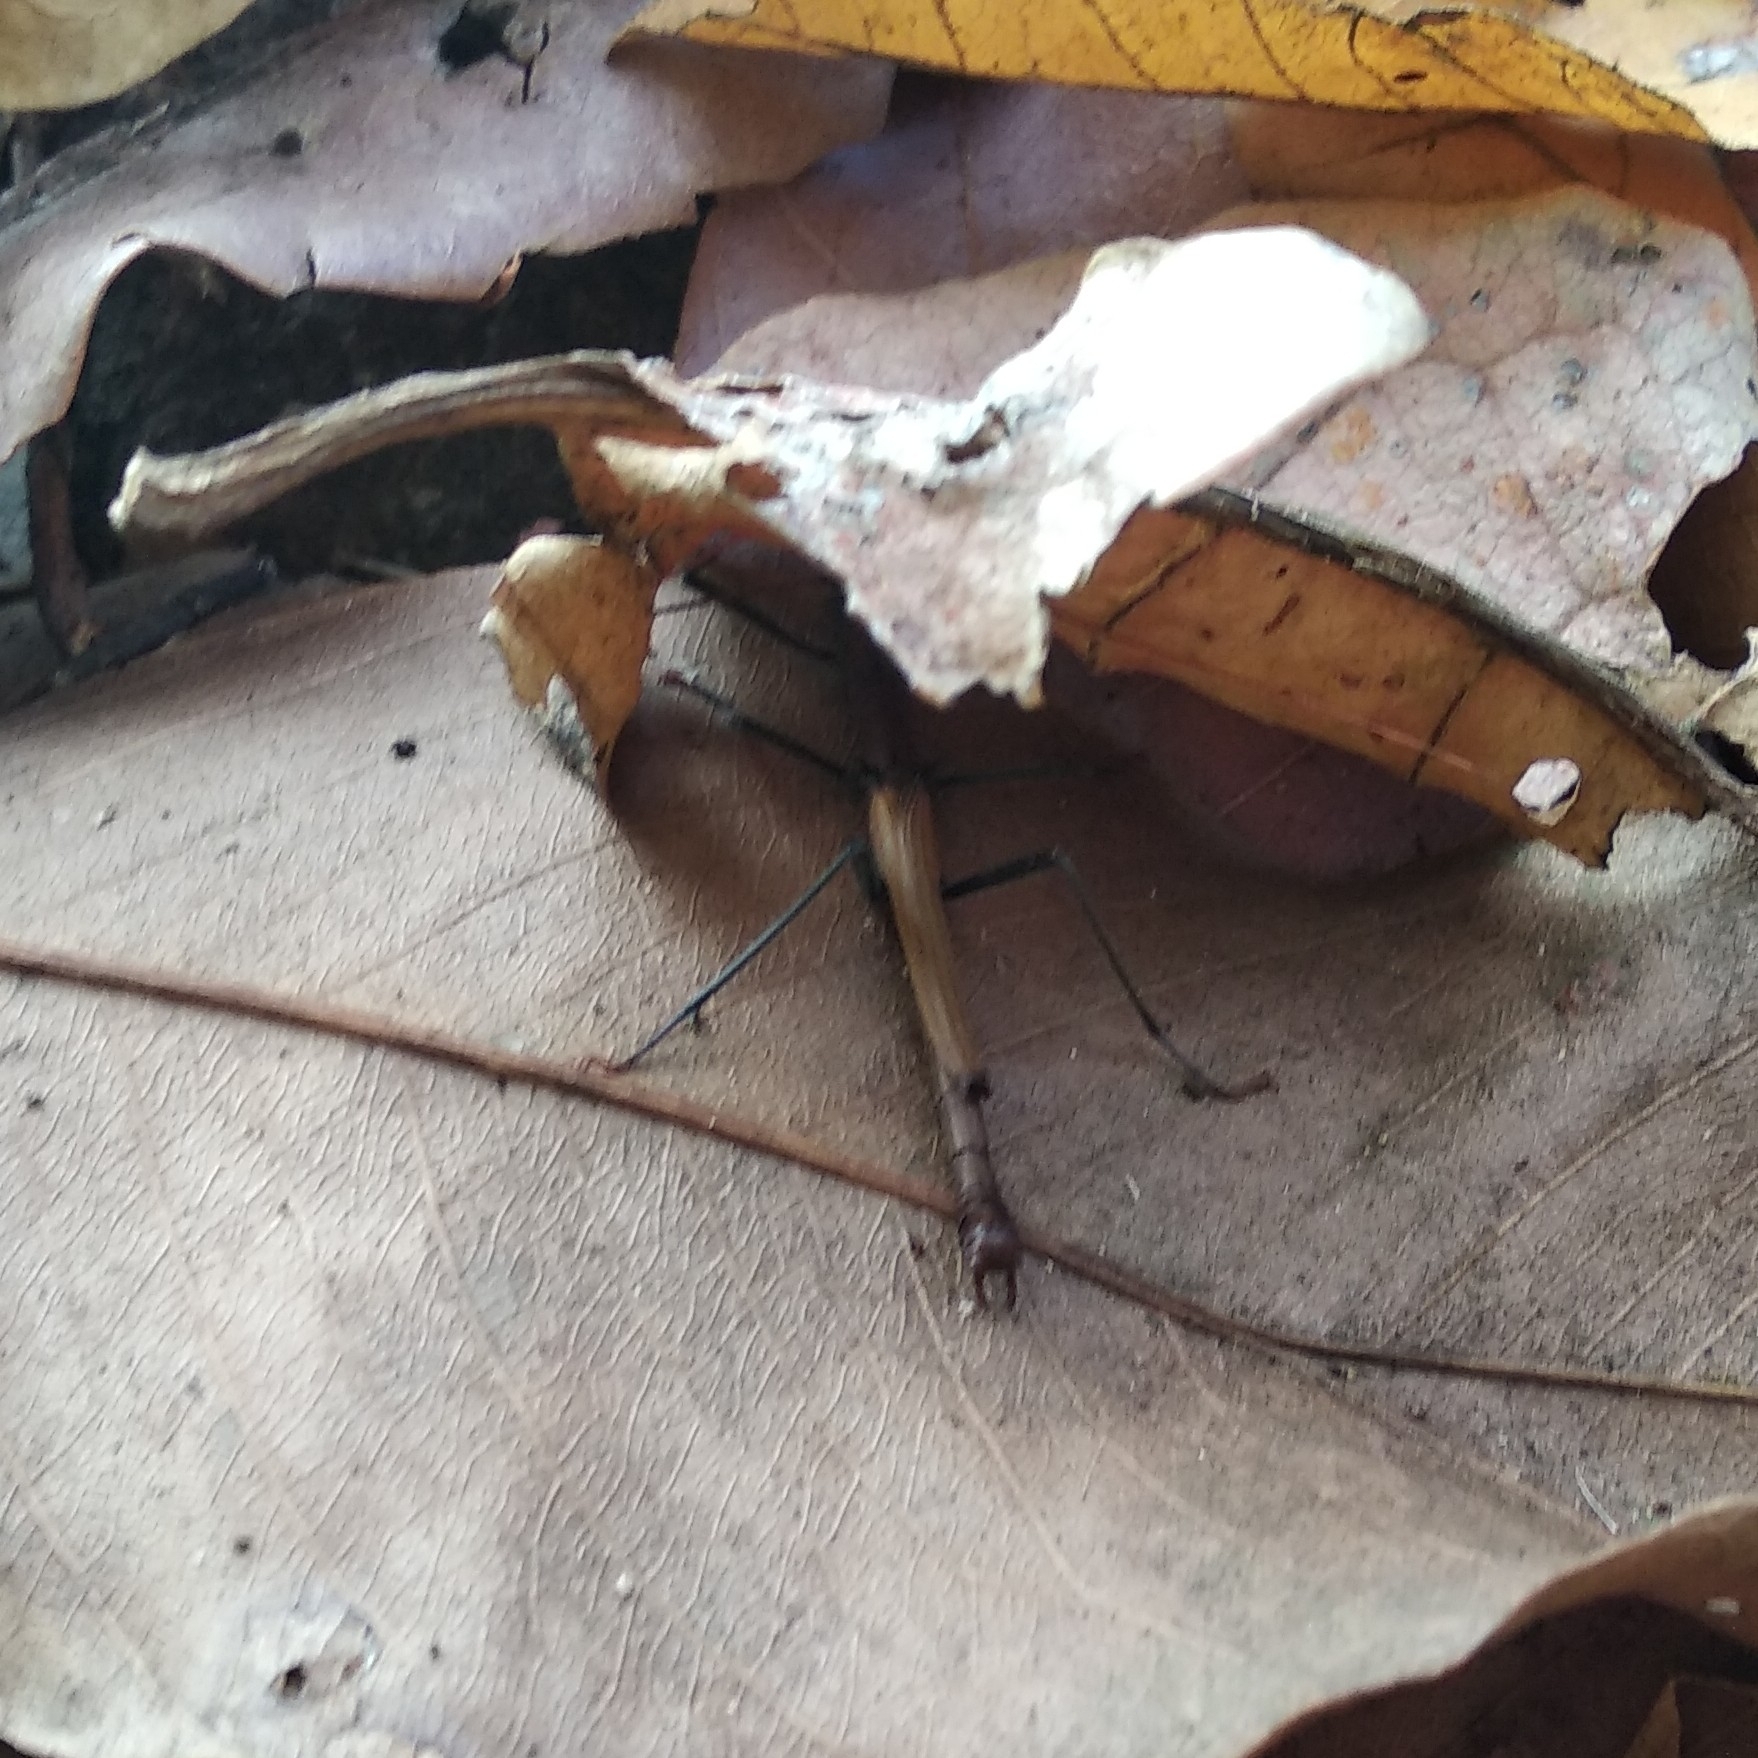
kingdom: Animalia
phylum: Arthropoda
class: Insecta
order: Phasmida
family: Aschiphasmatidae
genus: Kerabistus
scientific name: Kerabistus fulvescens
